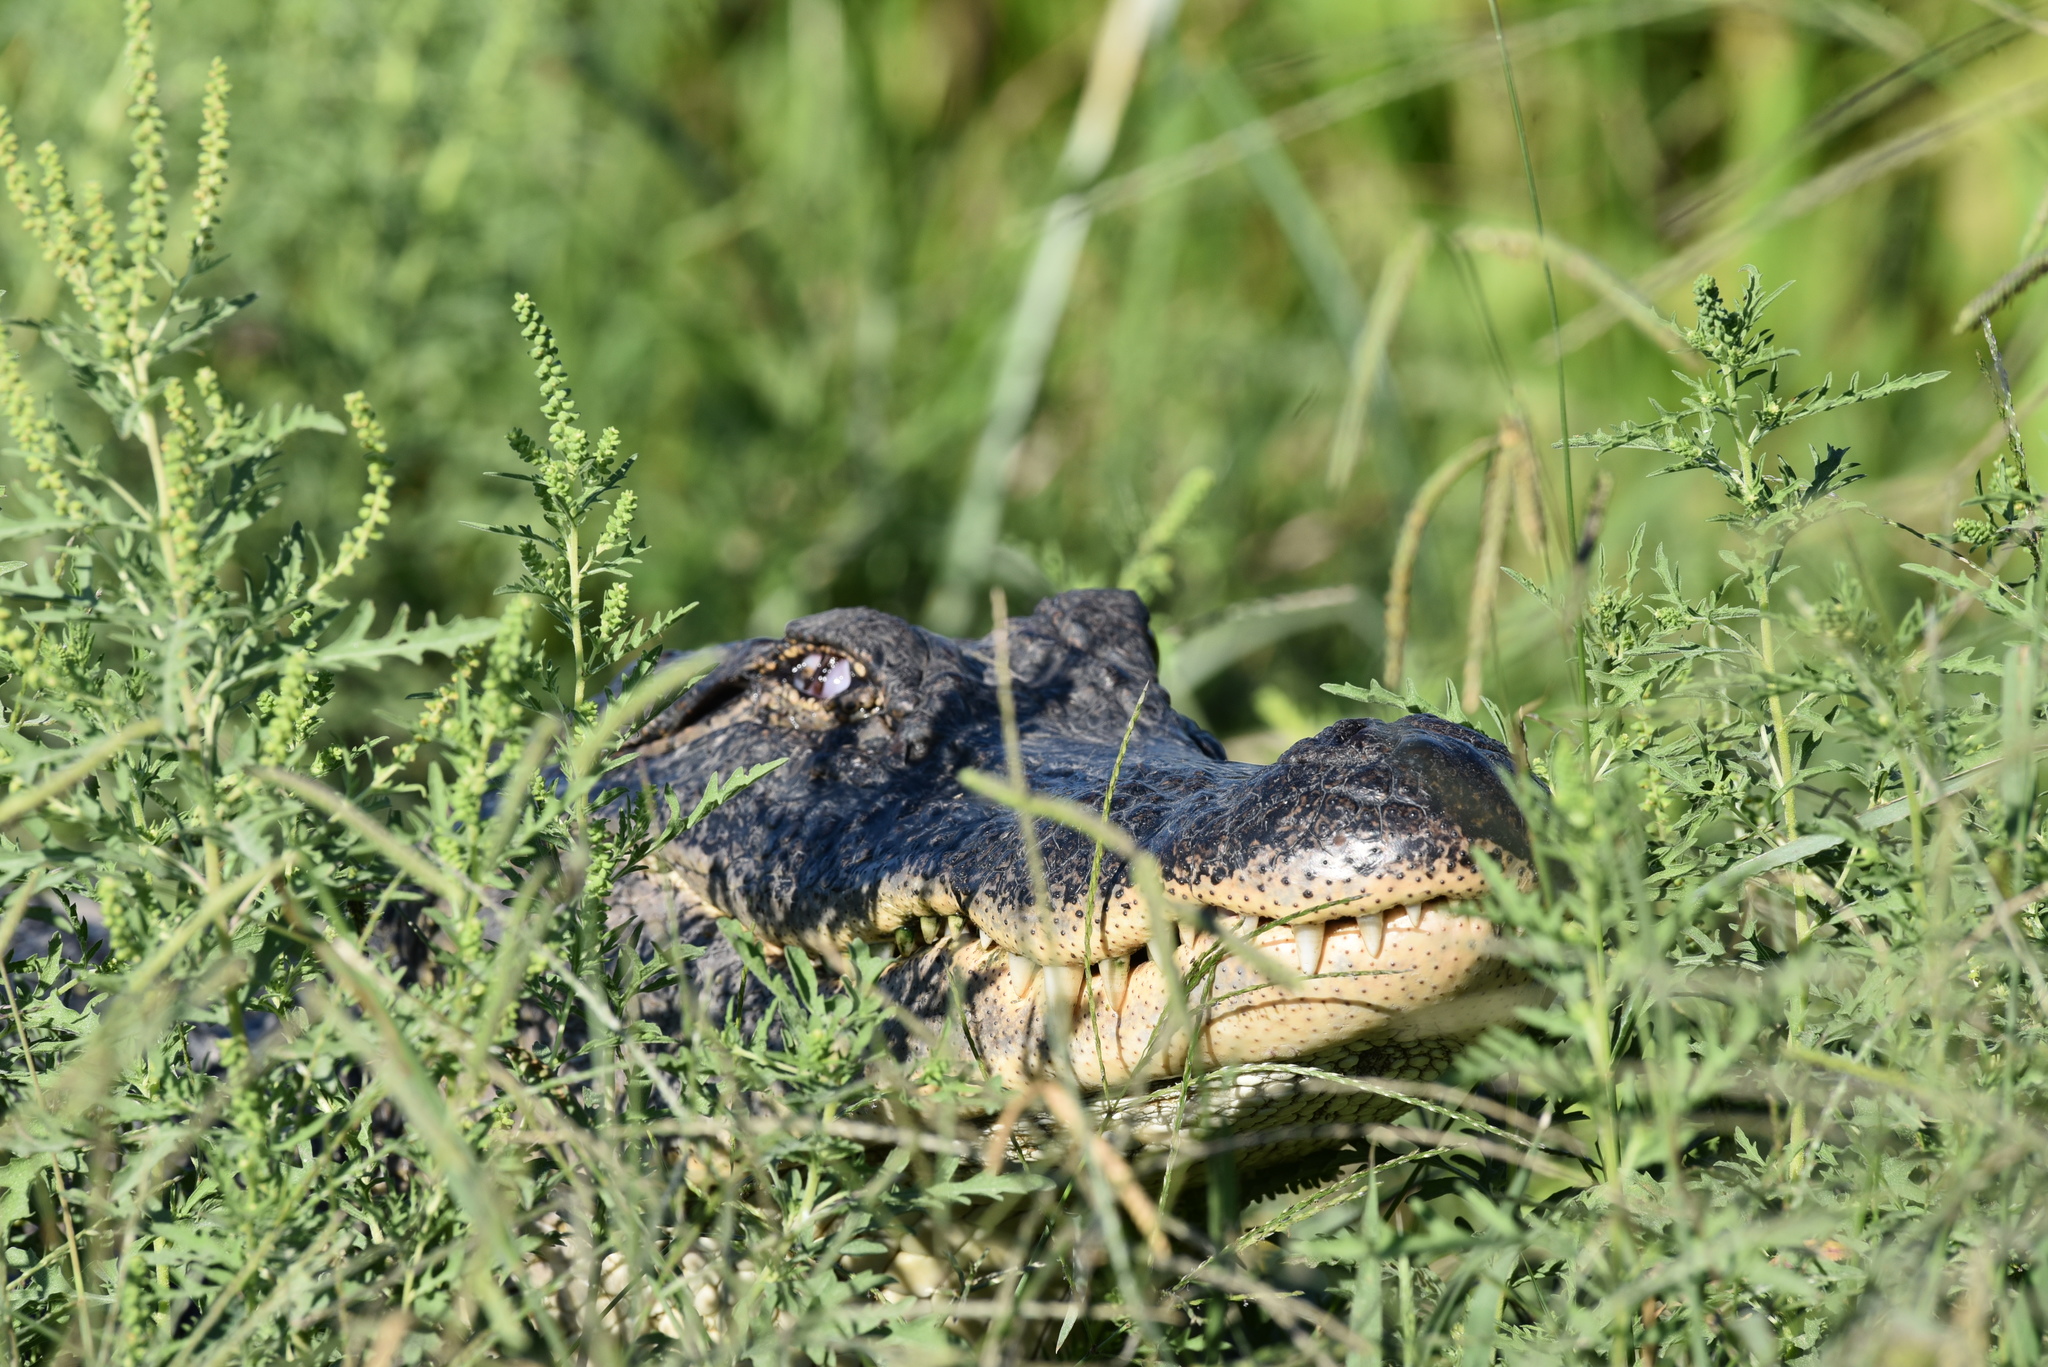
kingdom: Animalia
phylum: Chordata
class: Crocodylia
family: Alligatoridae
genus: Alligator
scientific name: Alligator mississippiensis
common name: American alligator
